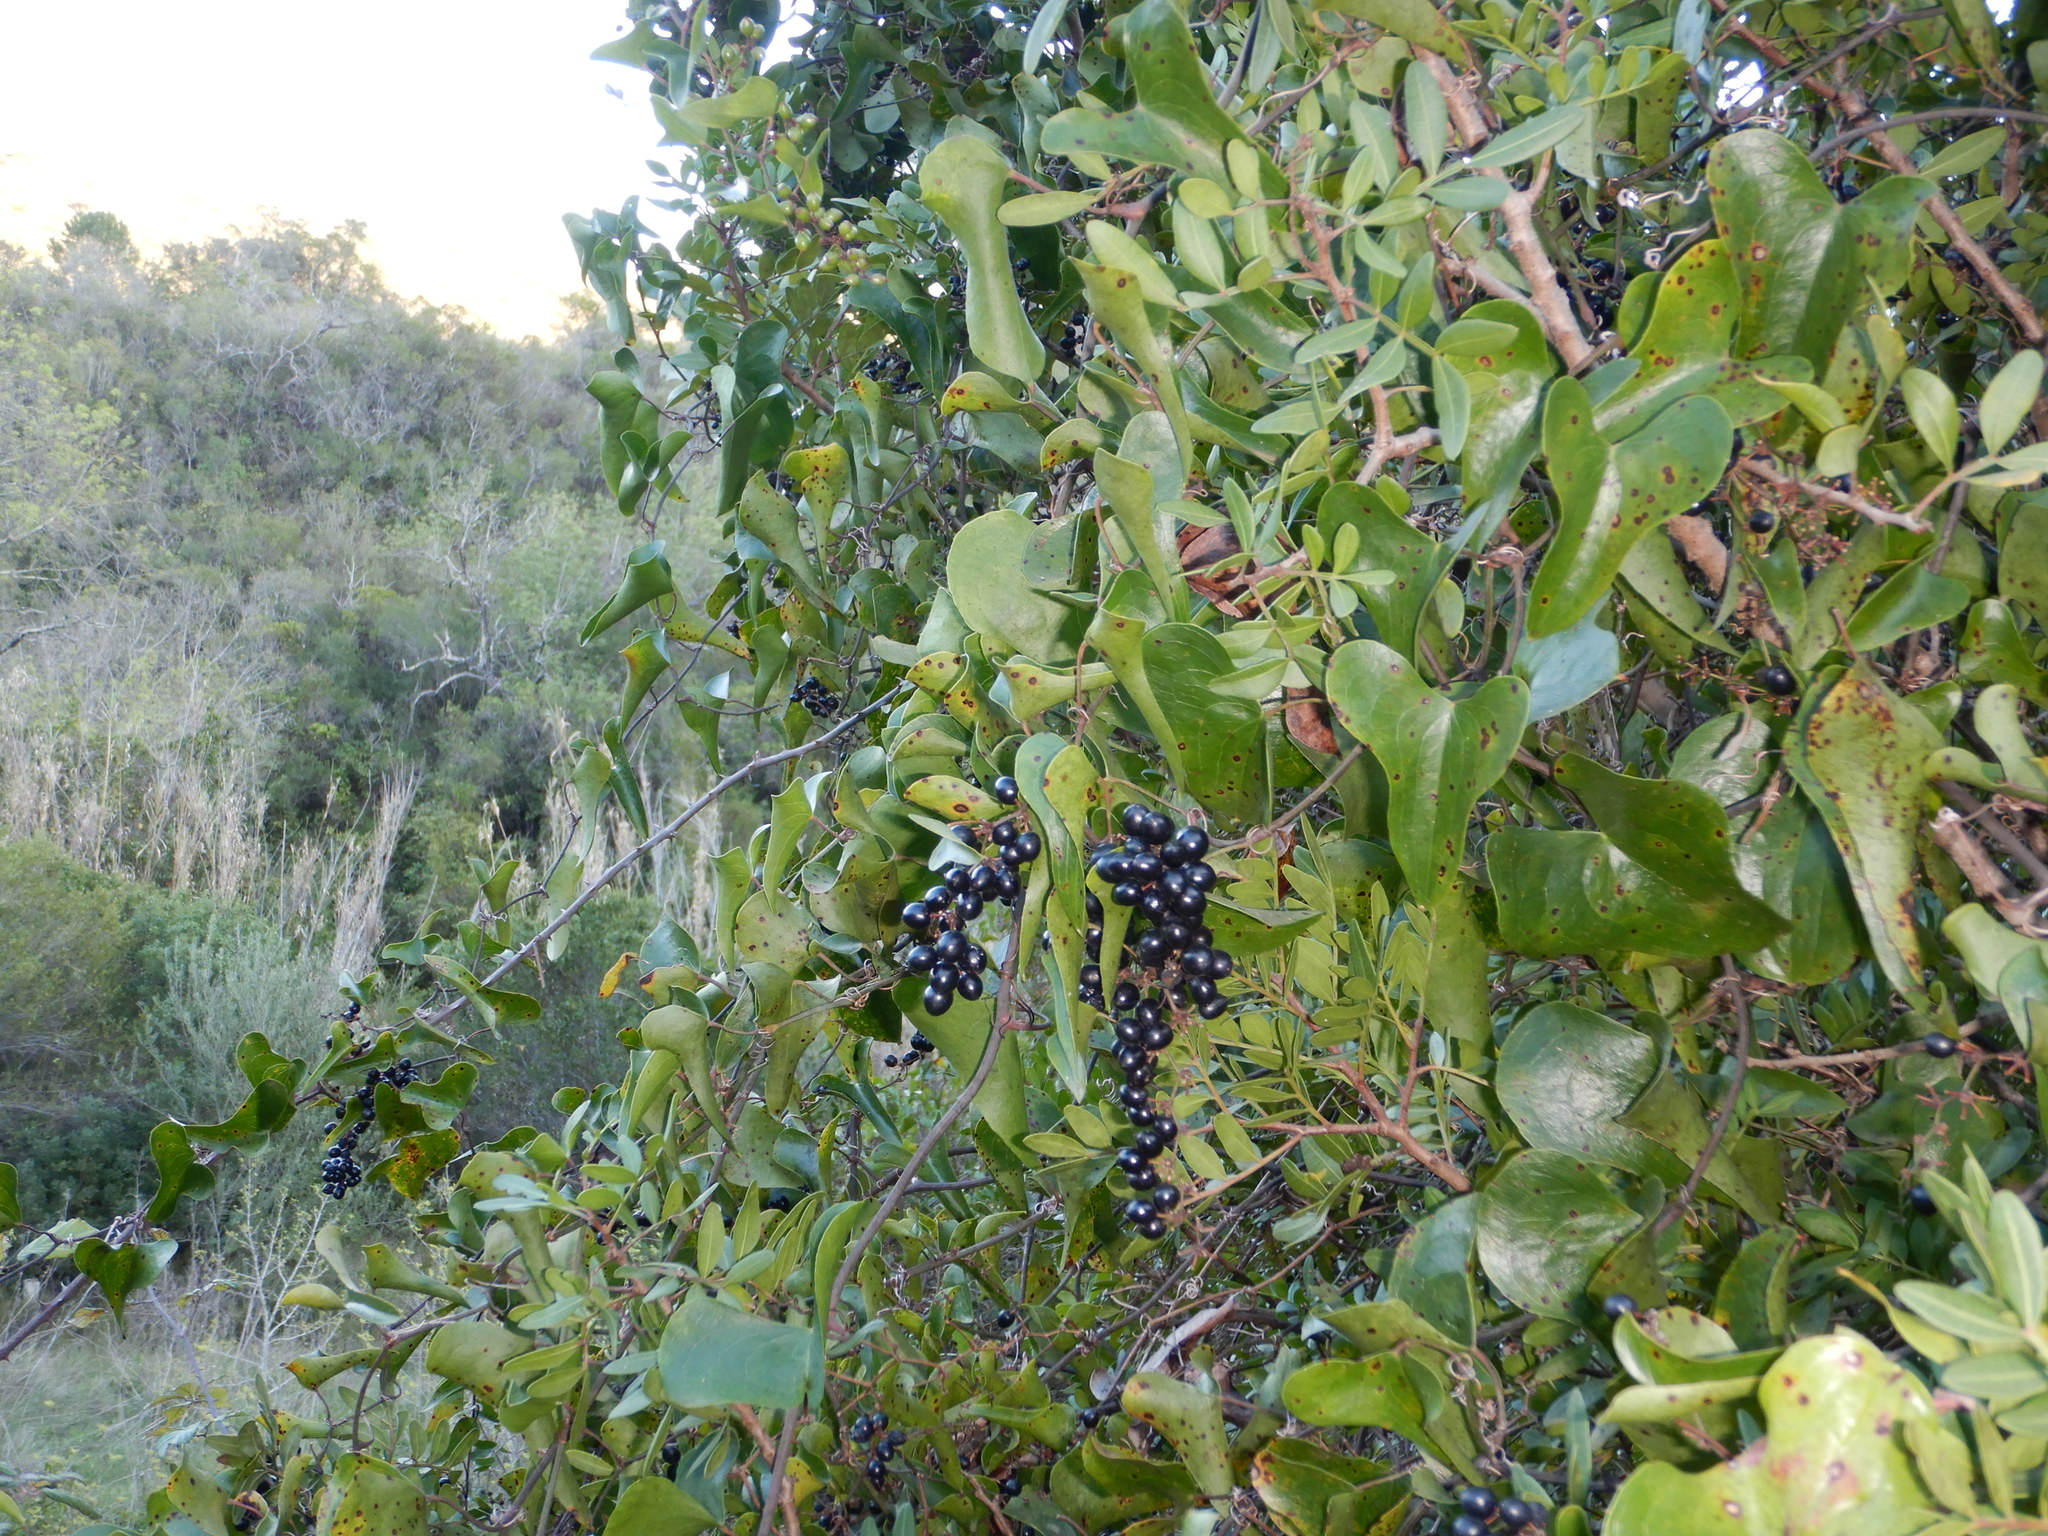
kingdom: Plantae
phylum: Tracheophyta
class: Liliopsida
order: Liliales
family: Smilacaceae
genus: Smilax
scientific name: Smilax aspera
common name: Common smilax
